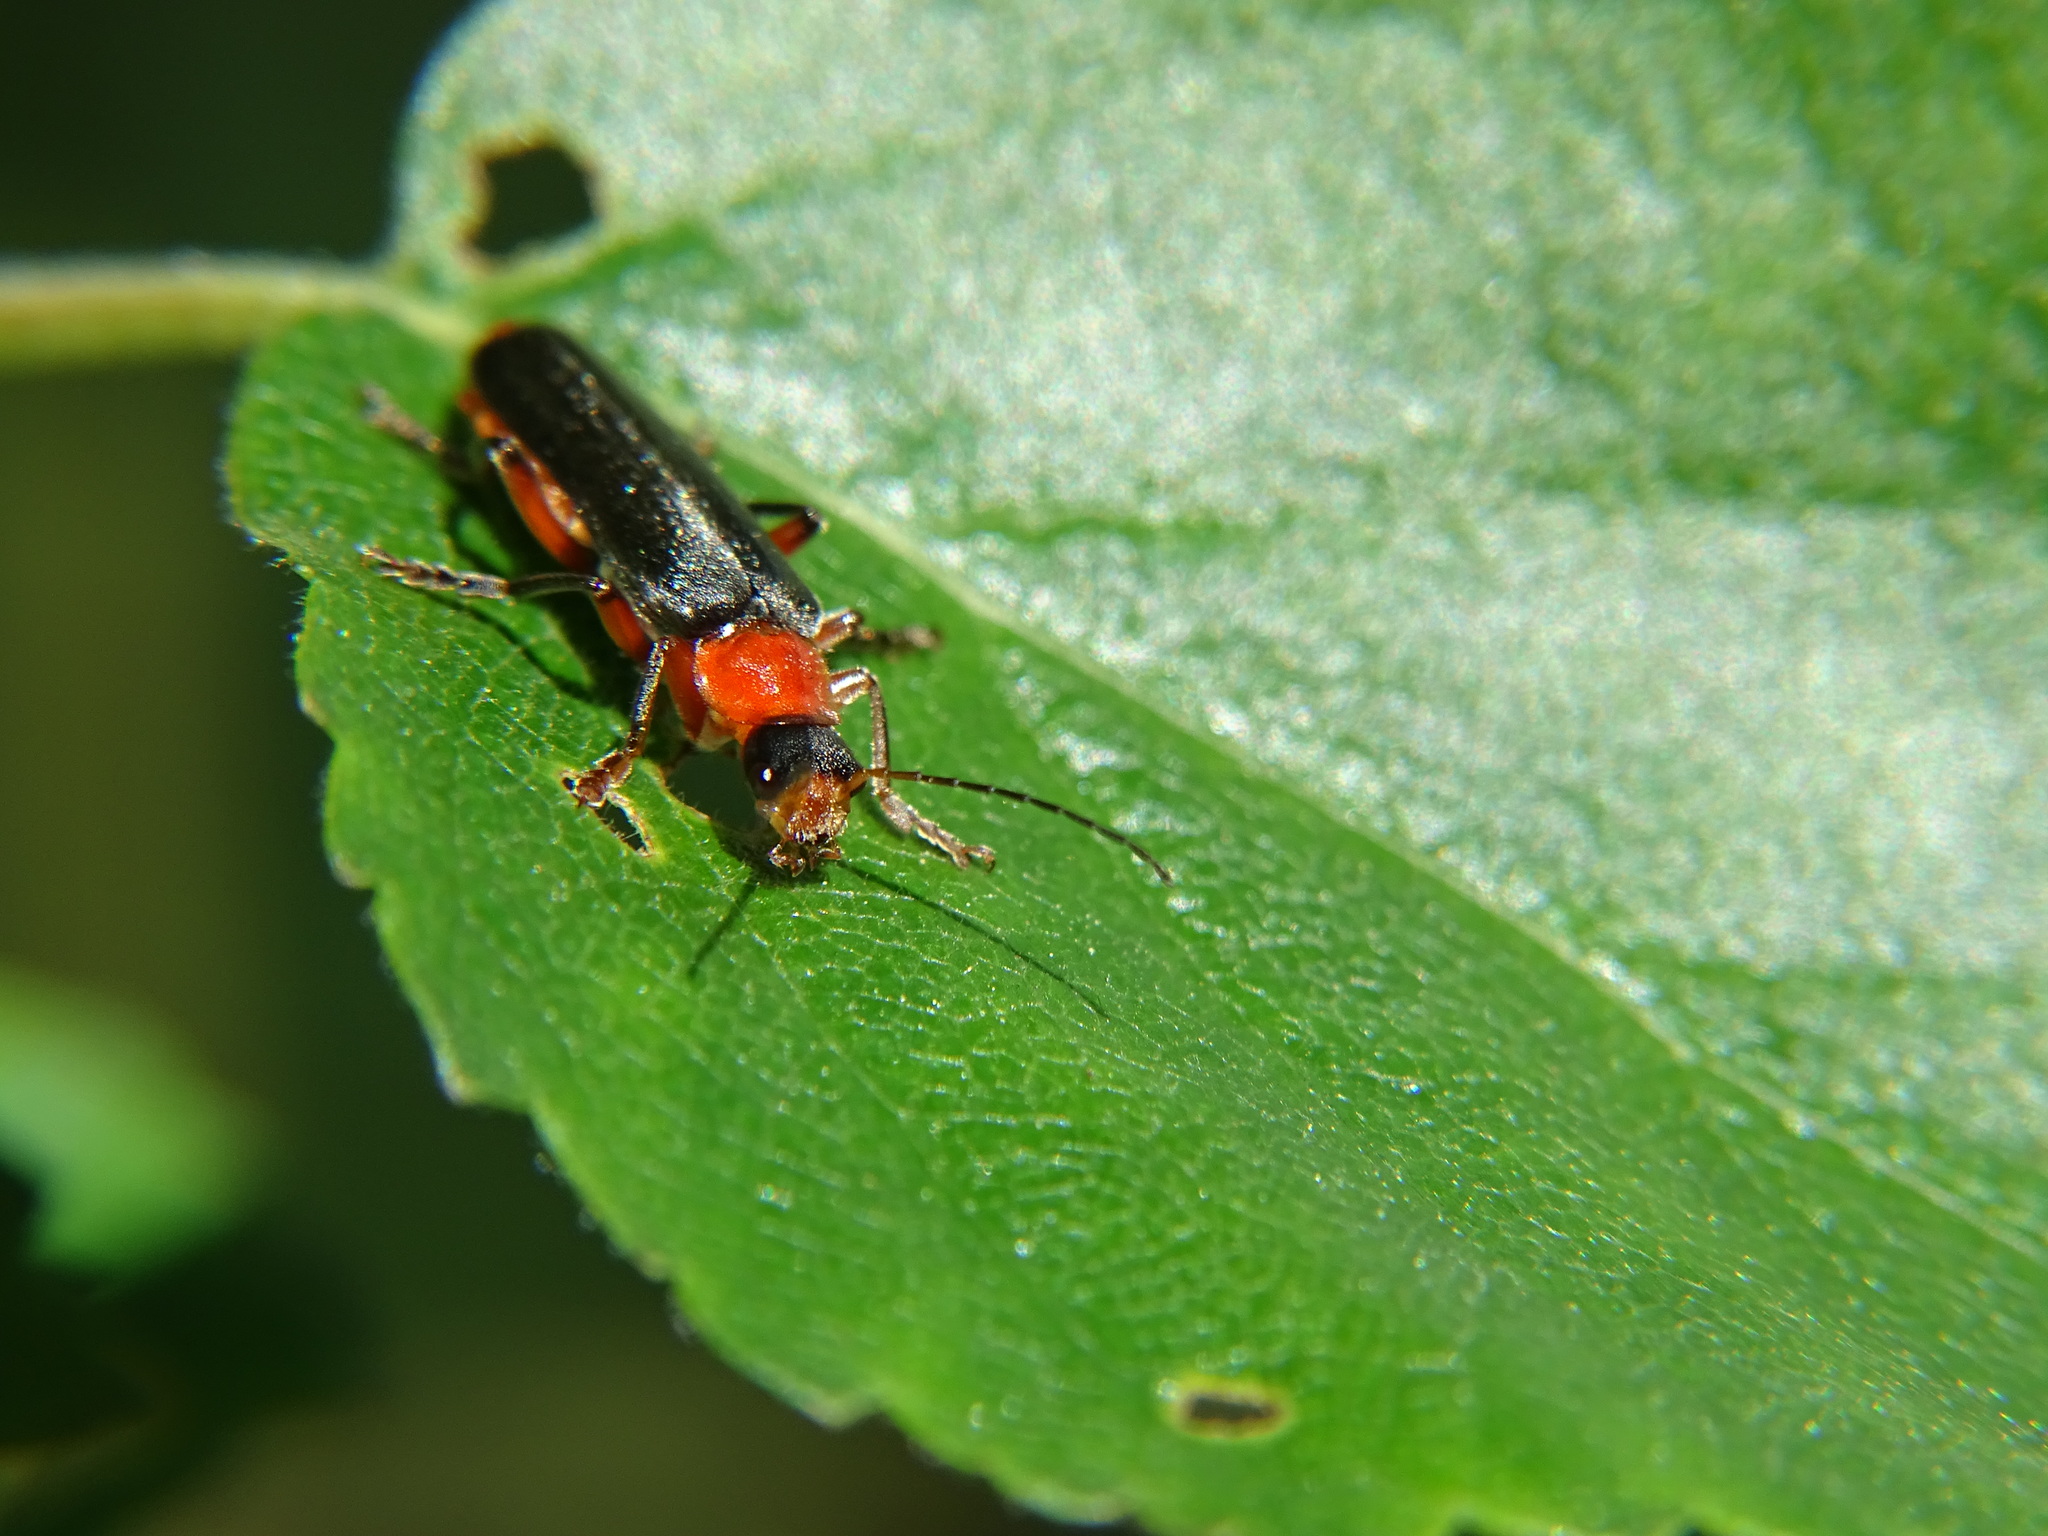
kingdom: Animalia
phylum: Arthropoda
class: Insecta
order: Coleoptera
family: Cantharidae
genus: Cantharis
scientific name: Cantharis pellucida
